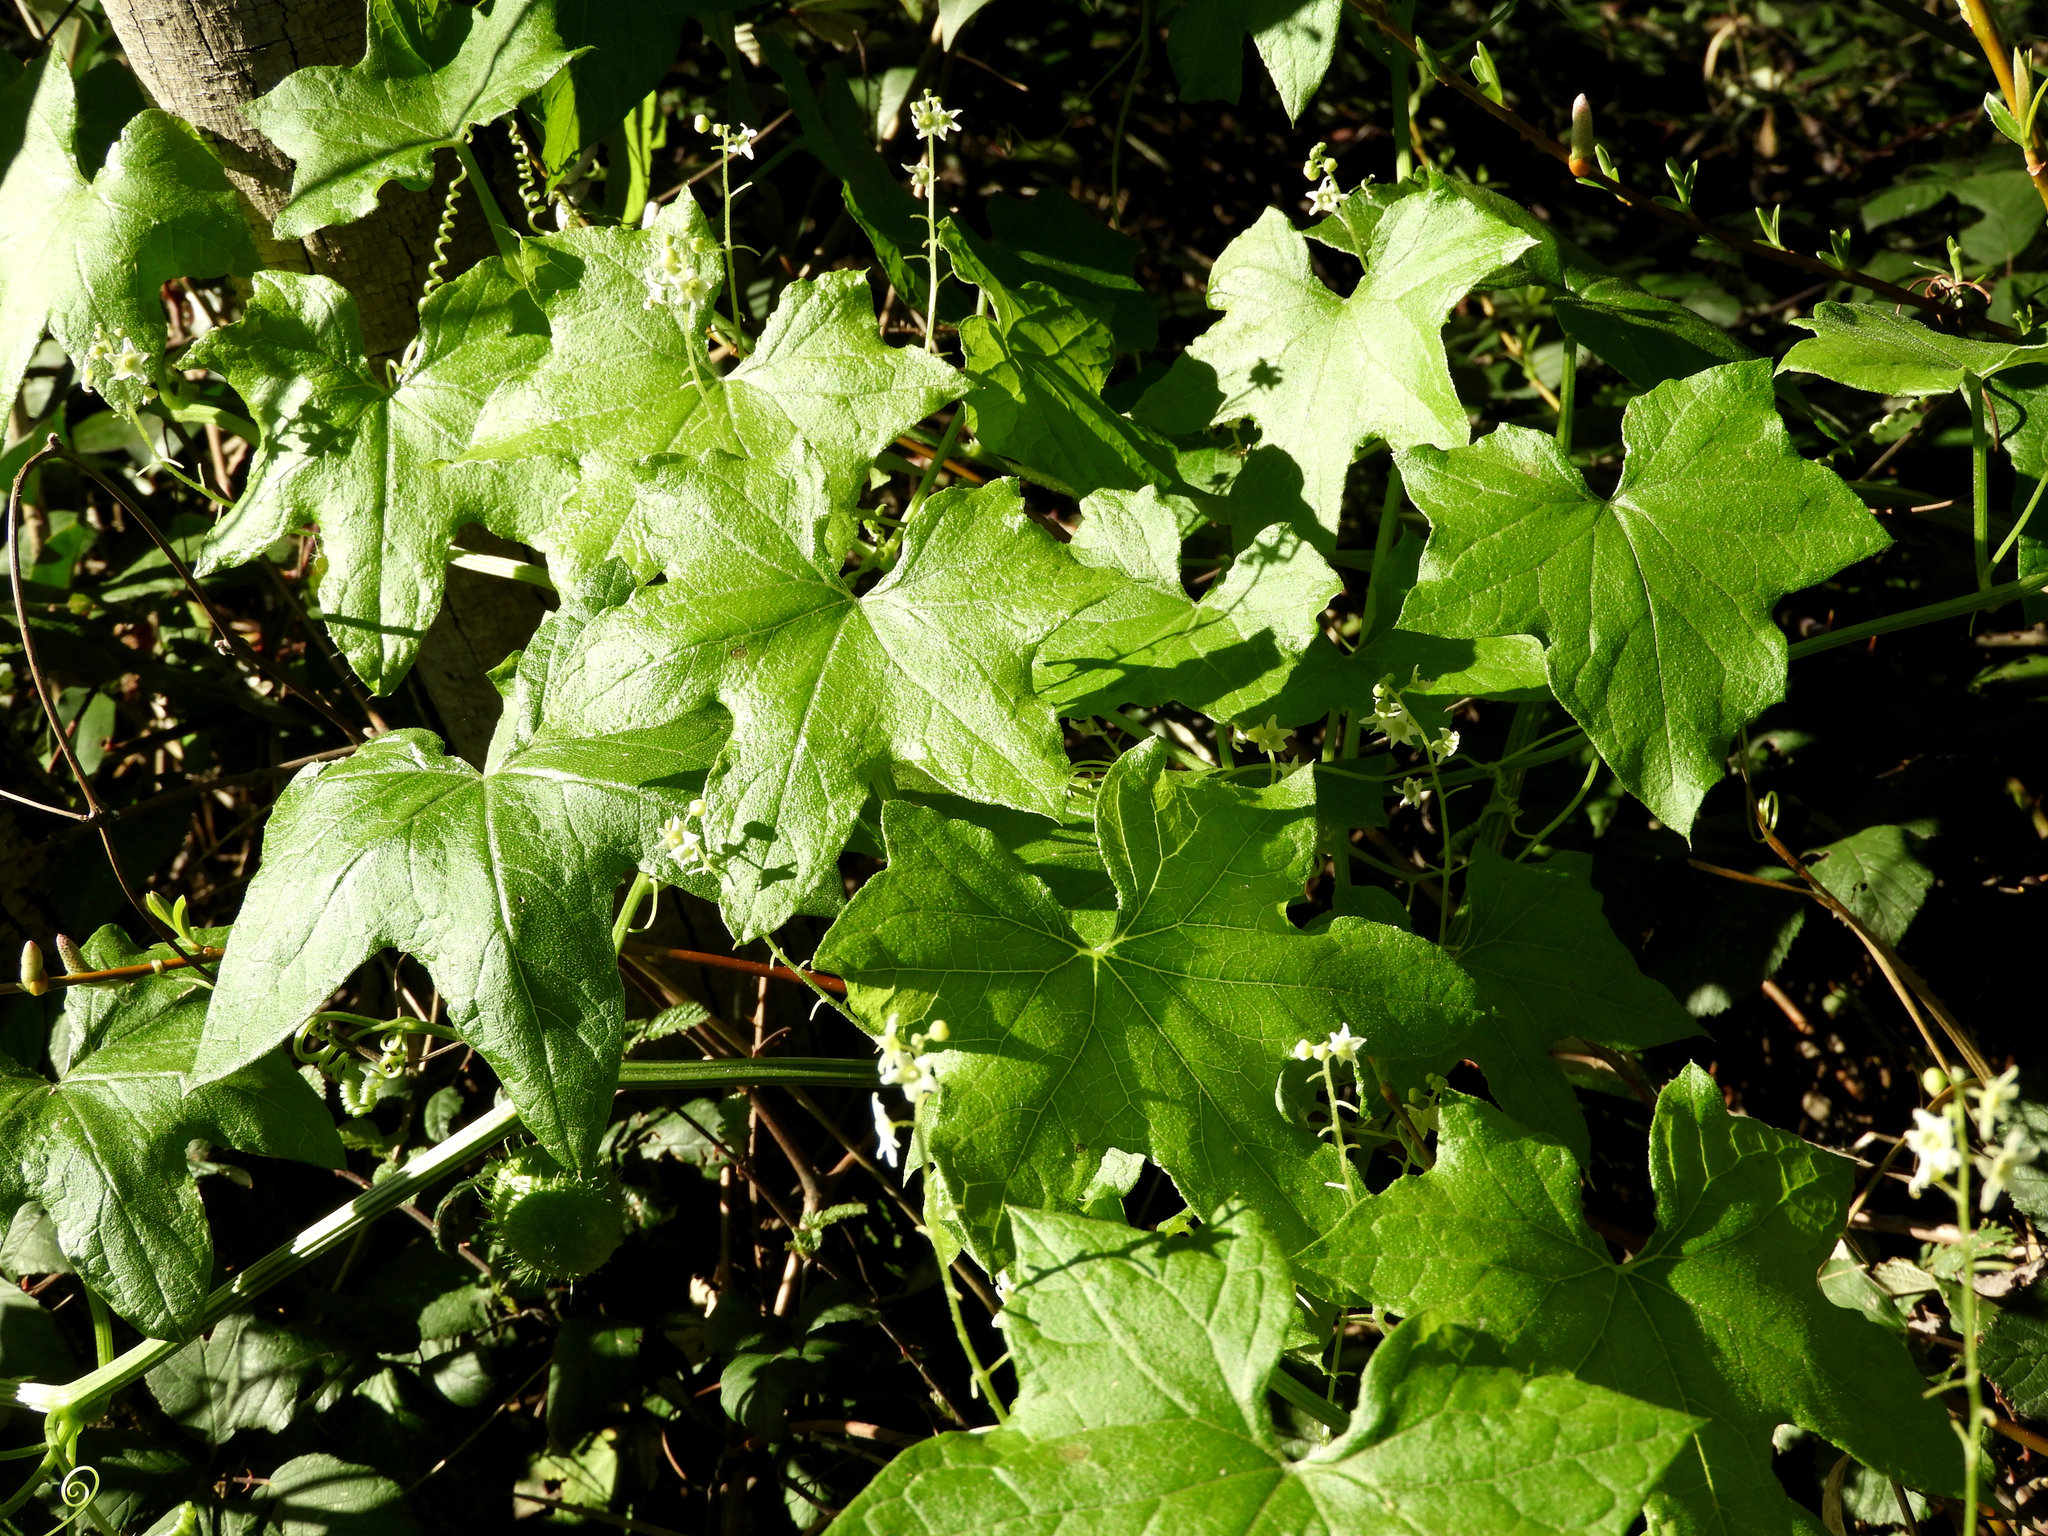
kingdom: Plantae
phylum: Tracheophyta
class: Magnoliopsida
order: Cucurbitales
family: Cucurbitaceae
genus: Marah
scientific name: Marah fabacea
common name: California manroot
